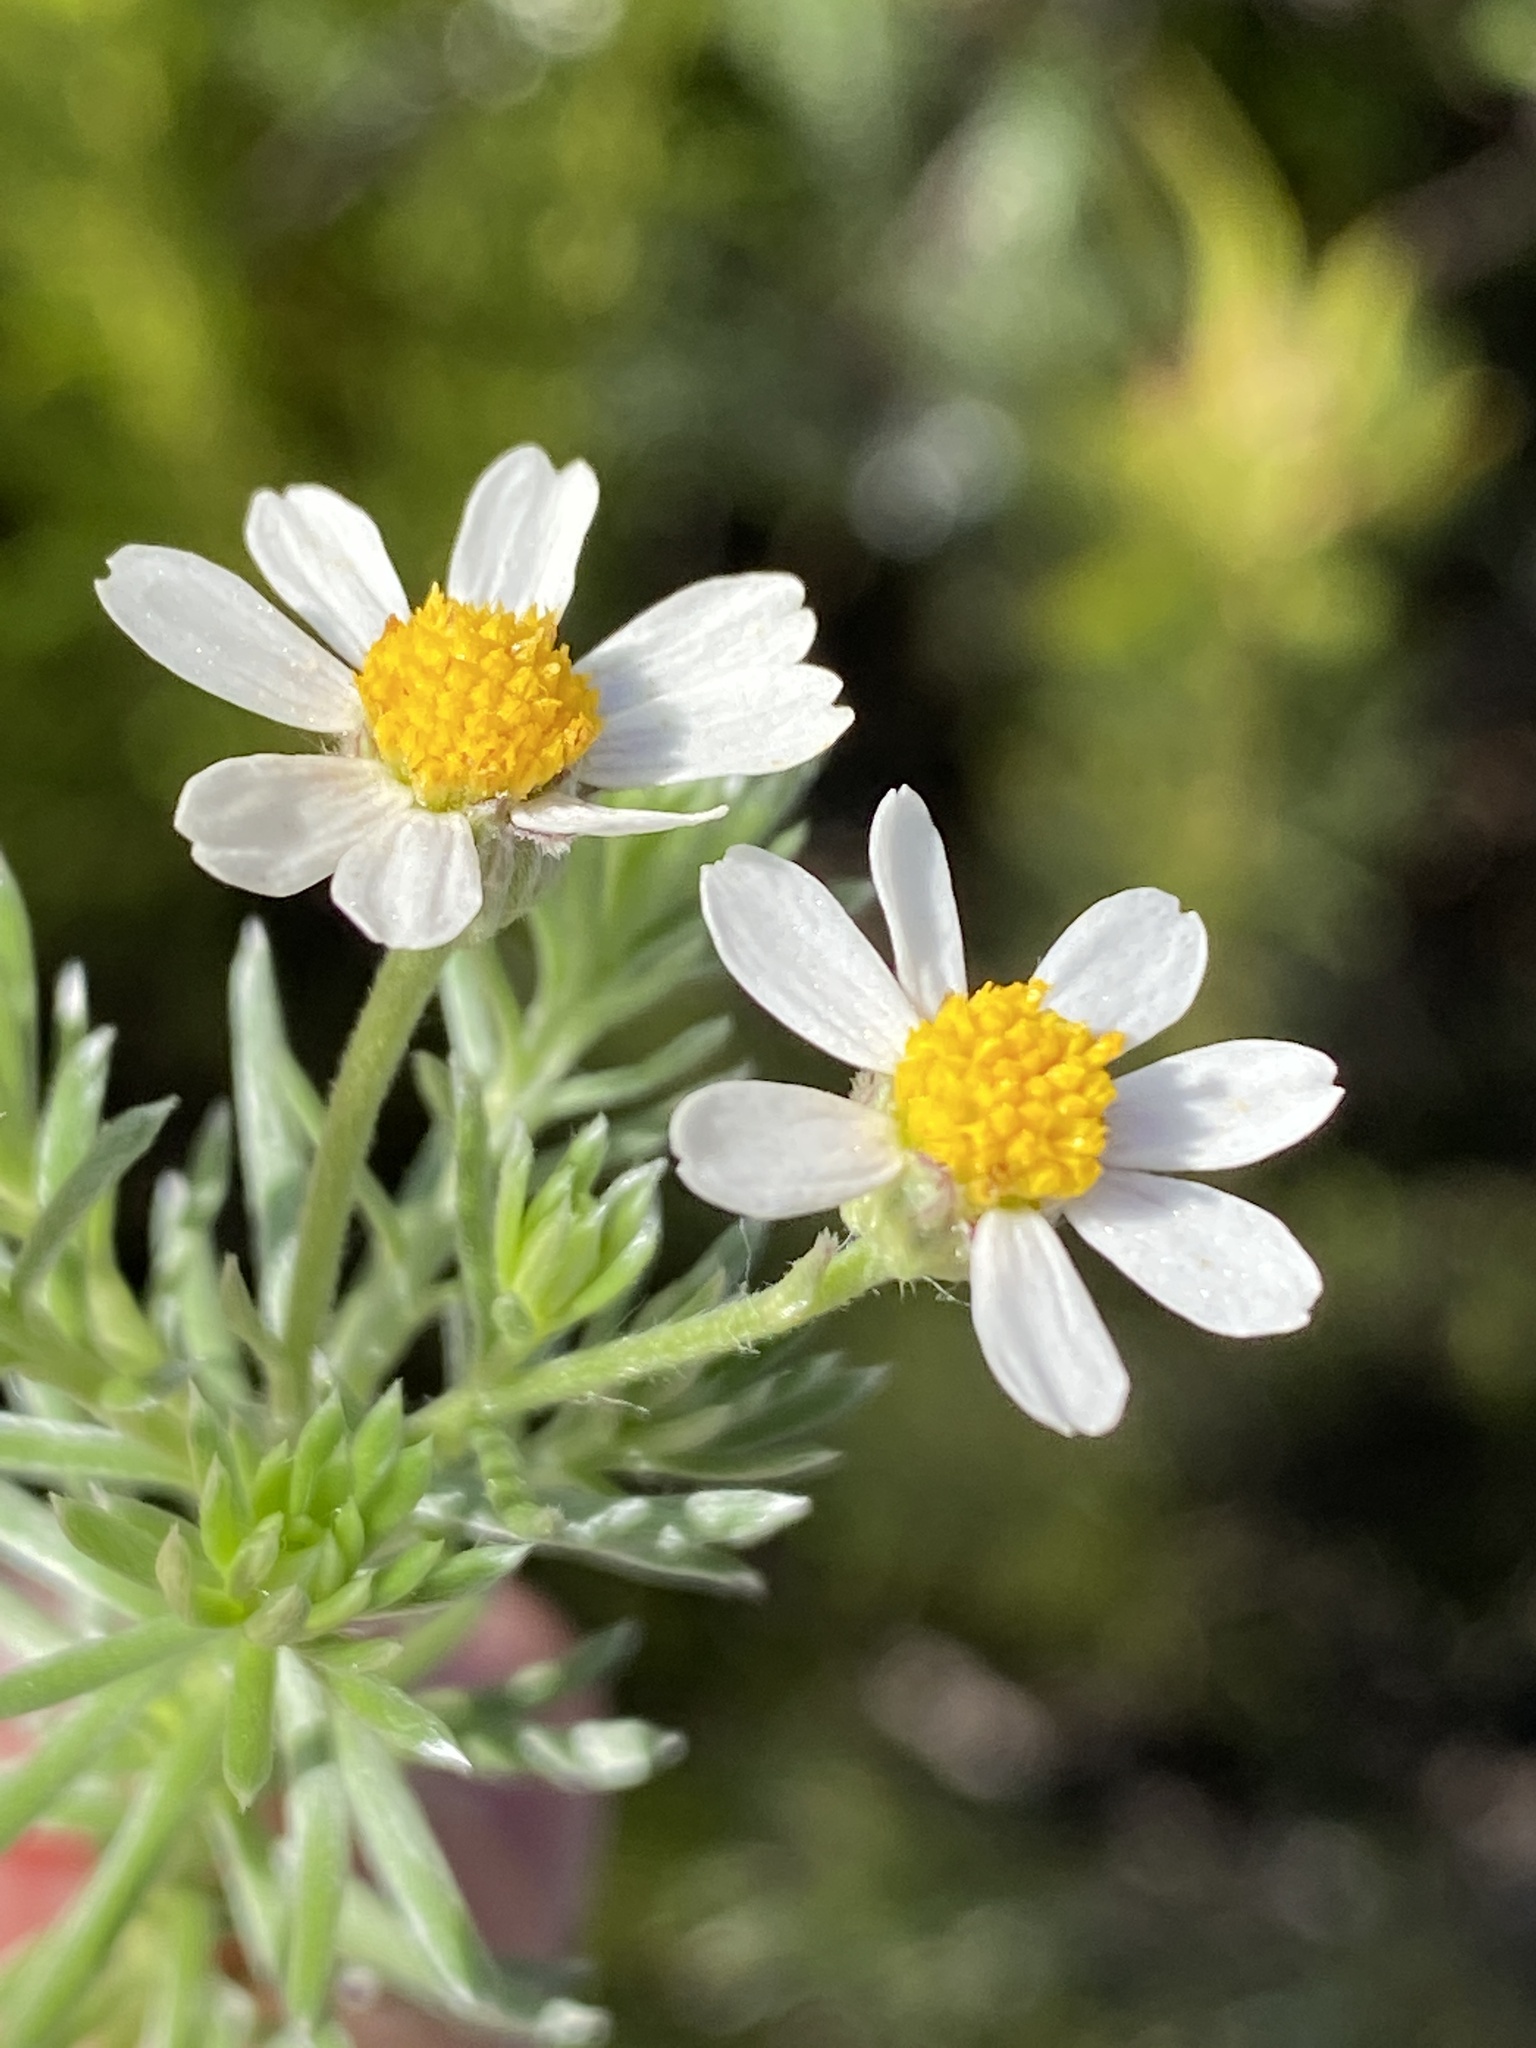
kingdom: Plantae
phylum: Tracheophyta
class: Magnoliopsida
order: Asterales
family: Asteraceae
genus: Thaminophyllum
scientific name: Thaminophyllum multiflorum
